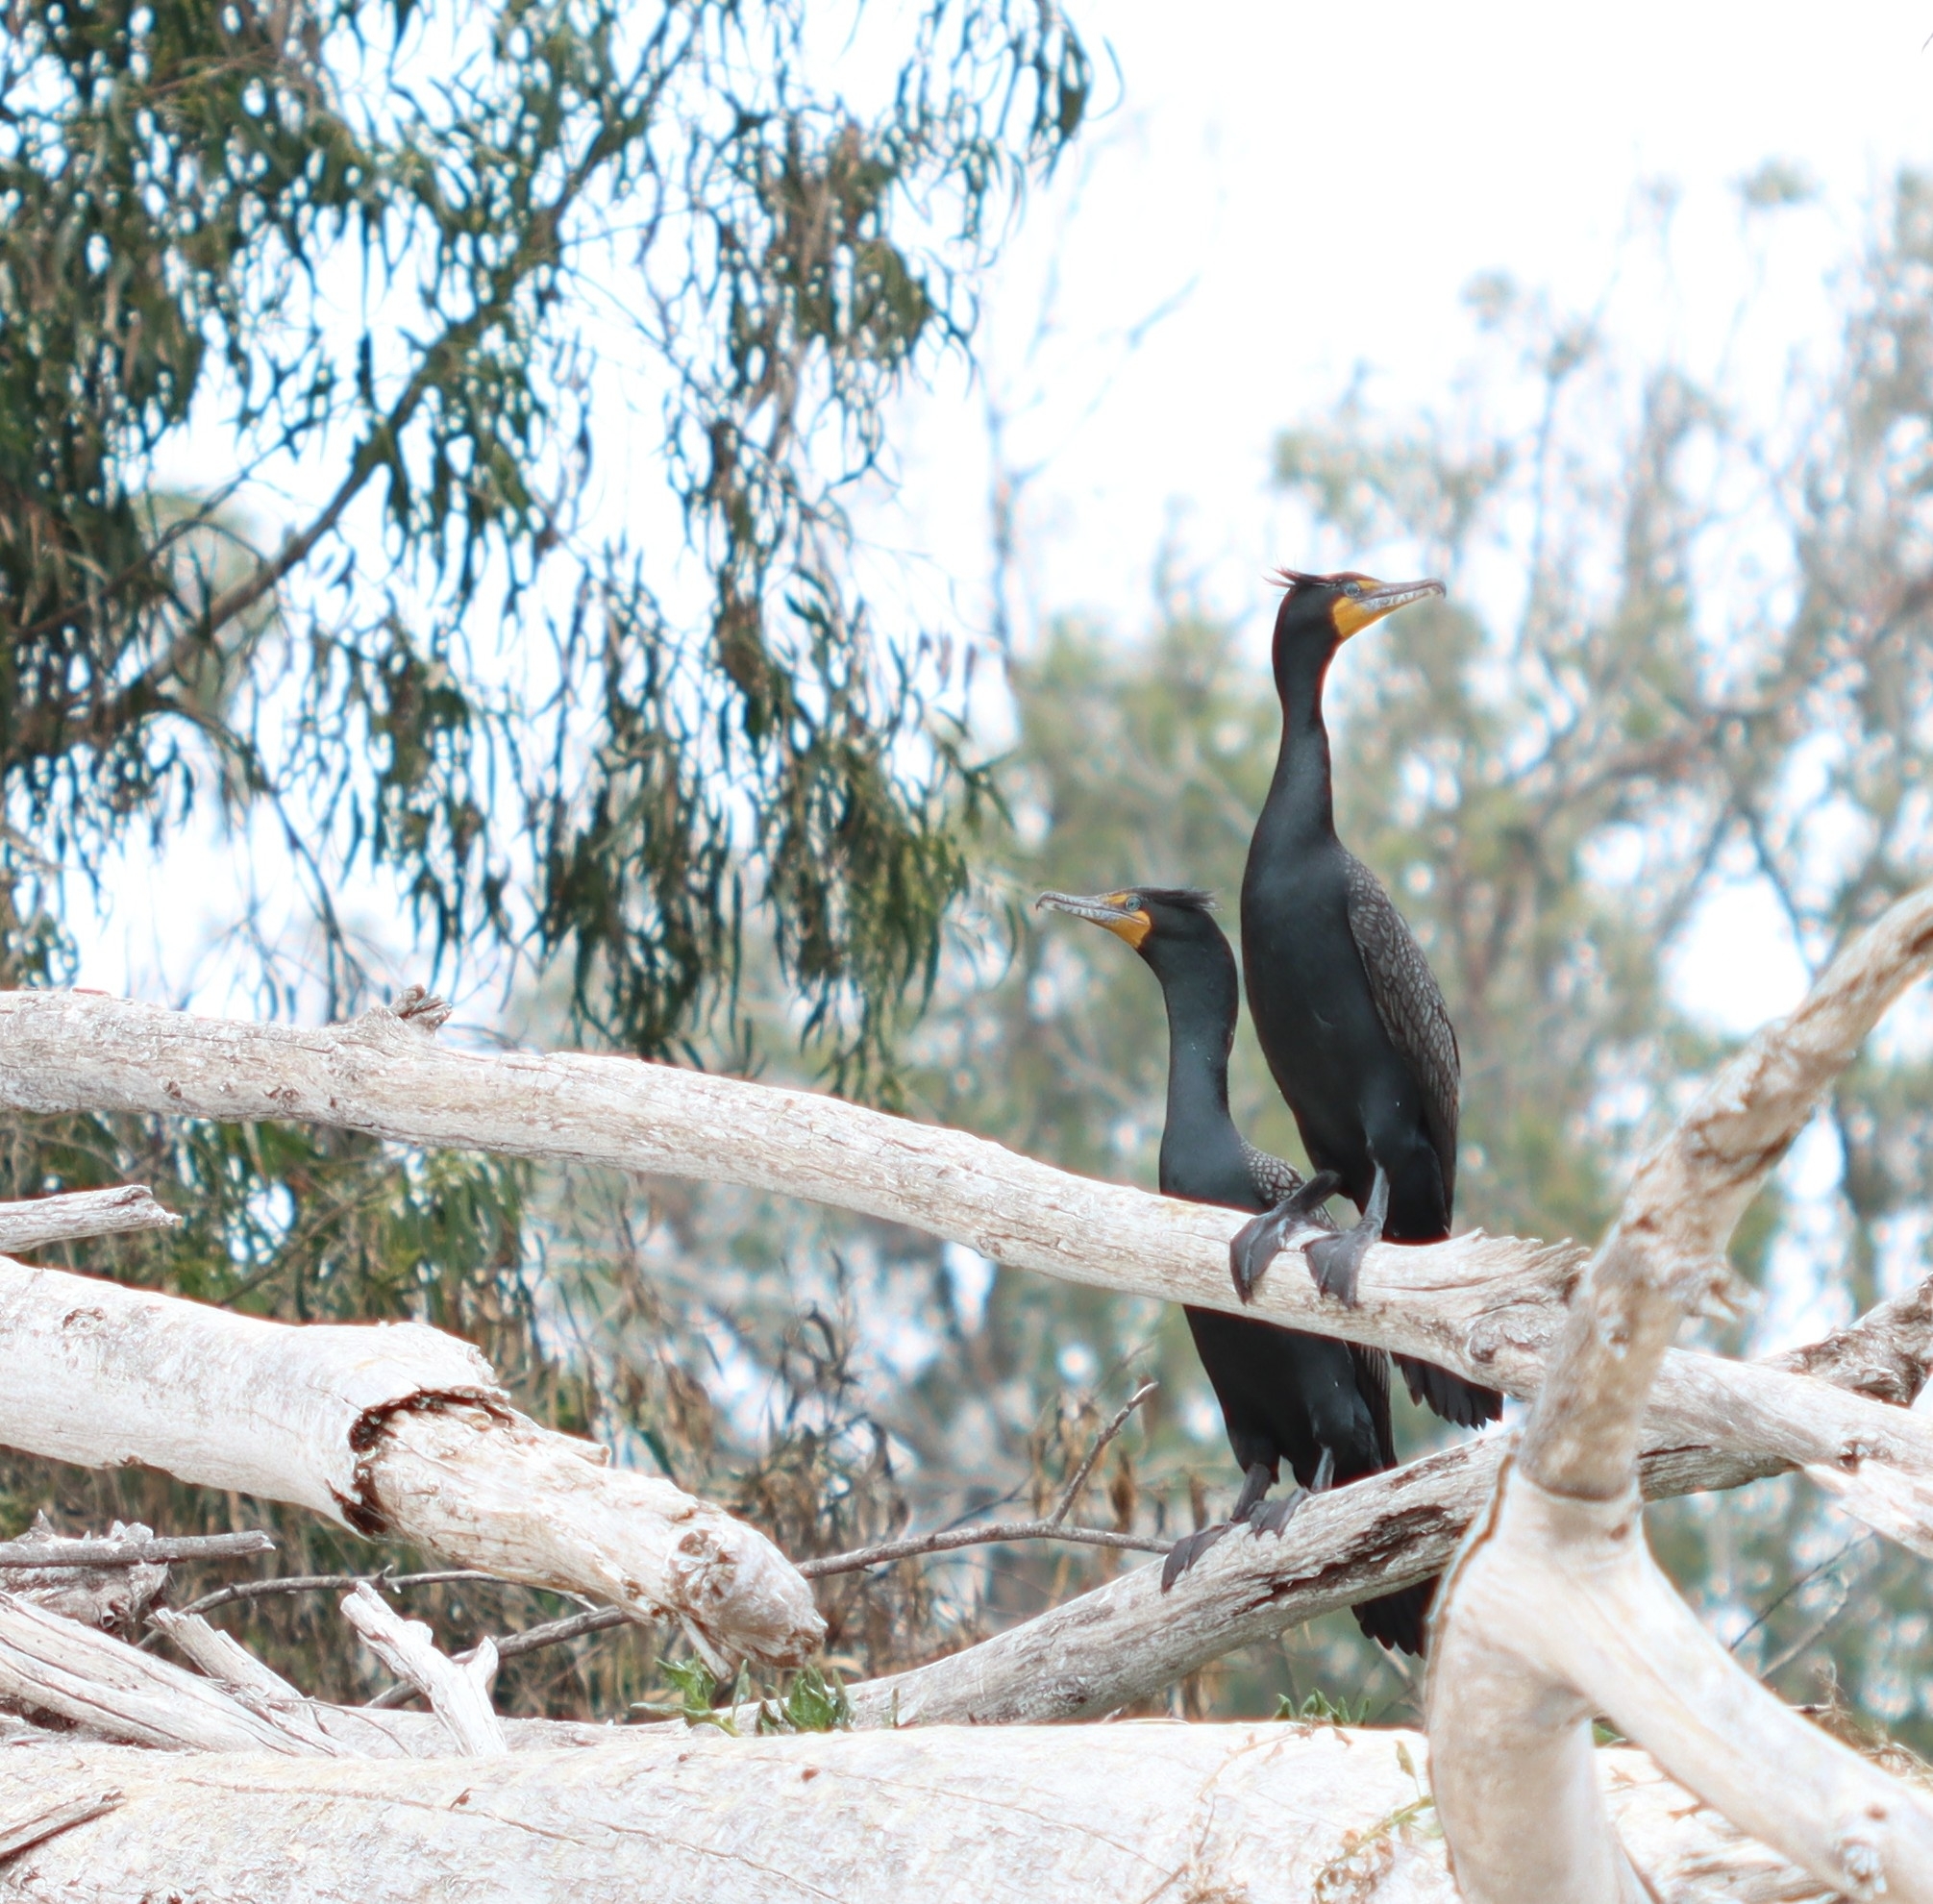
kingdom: Animalia
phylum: Chordata
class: Aves
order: Suliformes
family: Phalacrocoracidae
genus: Phalacrocorax
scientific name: Phalacrocorax auritus
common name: Double-crested cormorant
